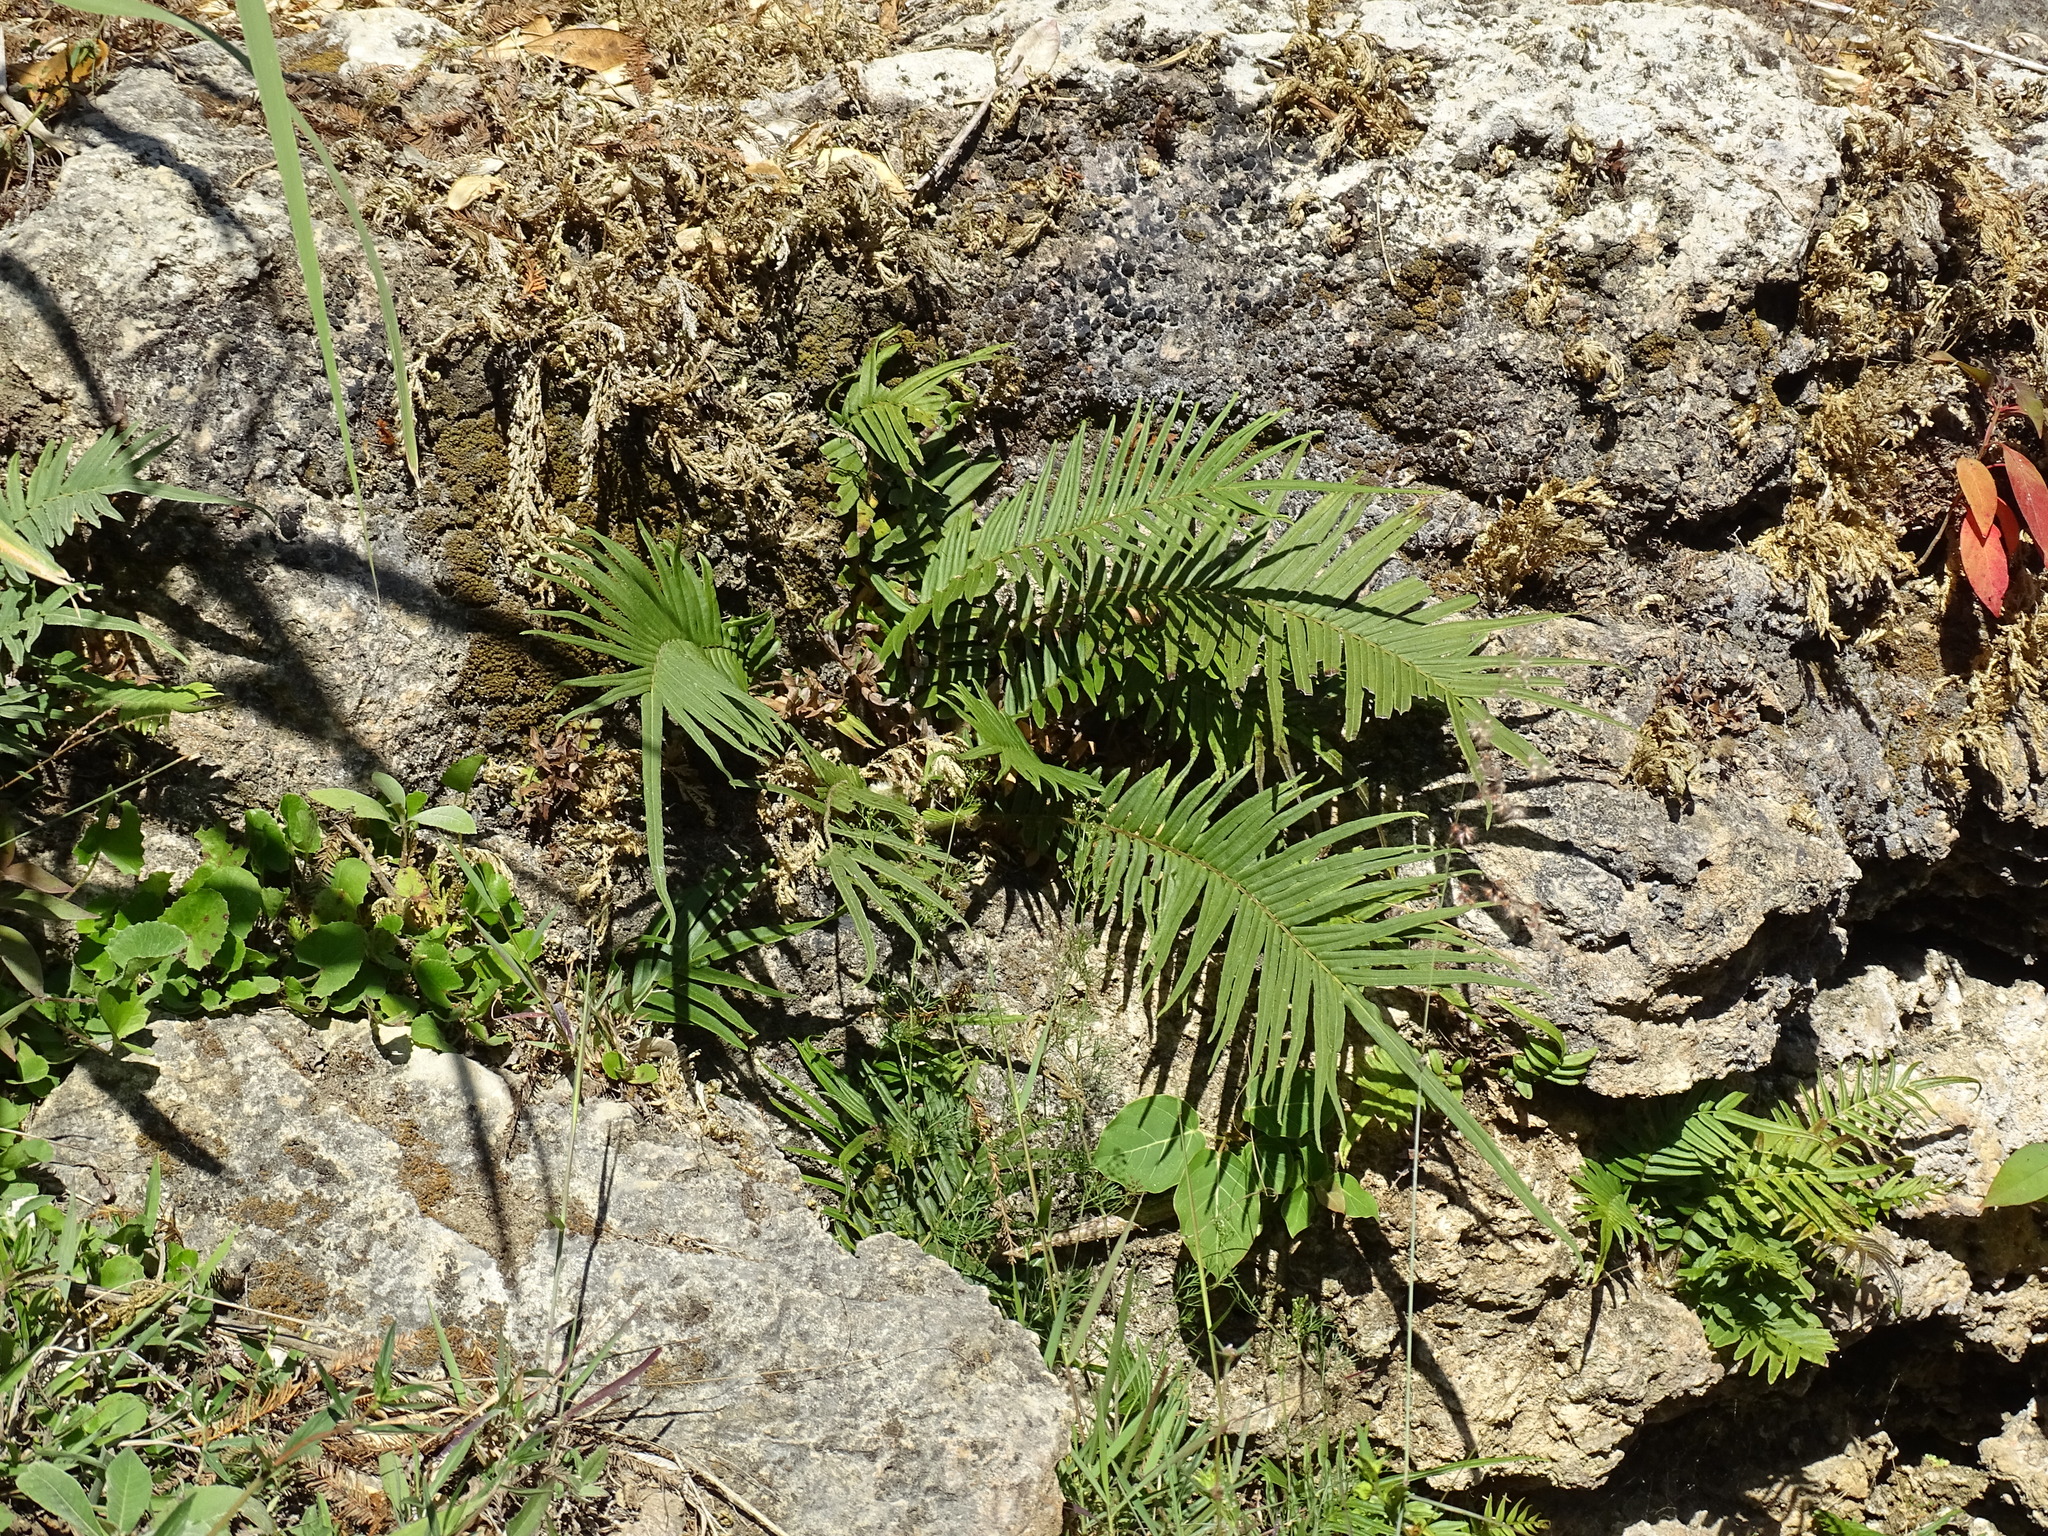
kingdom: Plantae
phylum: Tracheophyta
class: Polypodiopsida
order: Polypodiales
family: Pteridaceae
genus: Pteris
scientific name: Pteris vittata
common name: Ladder brake
